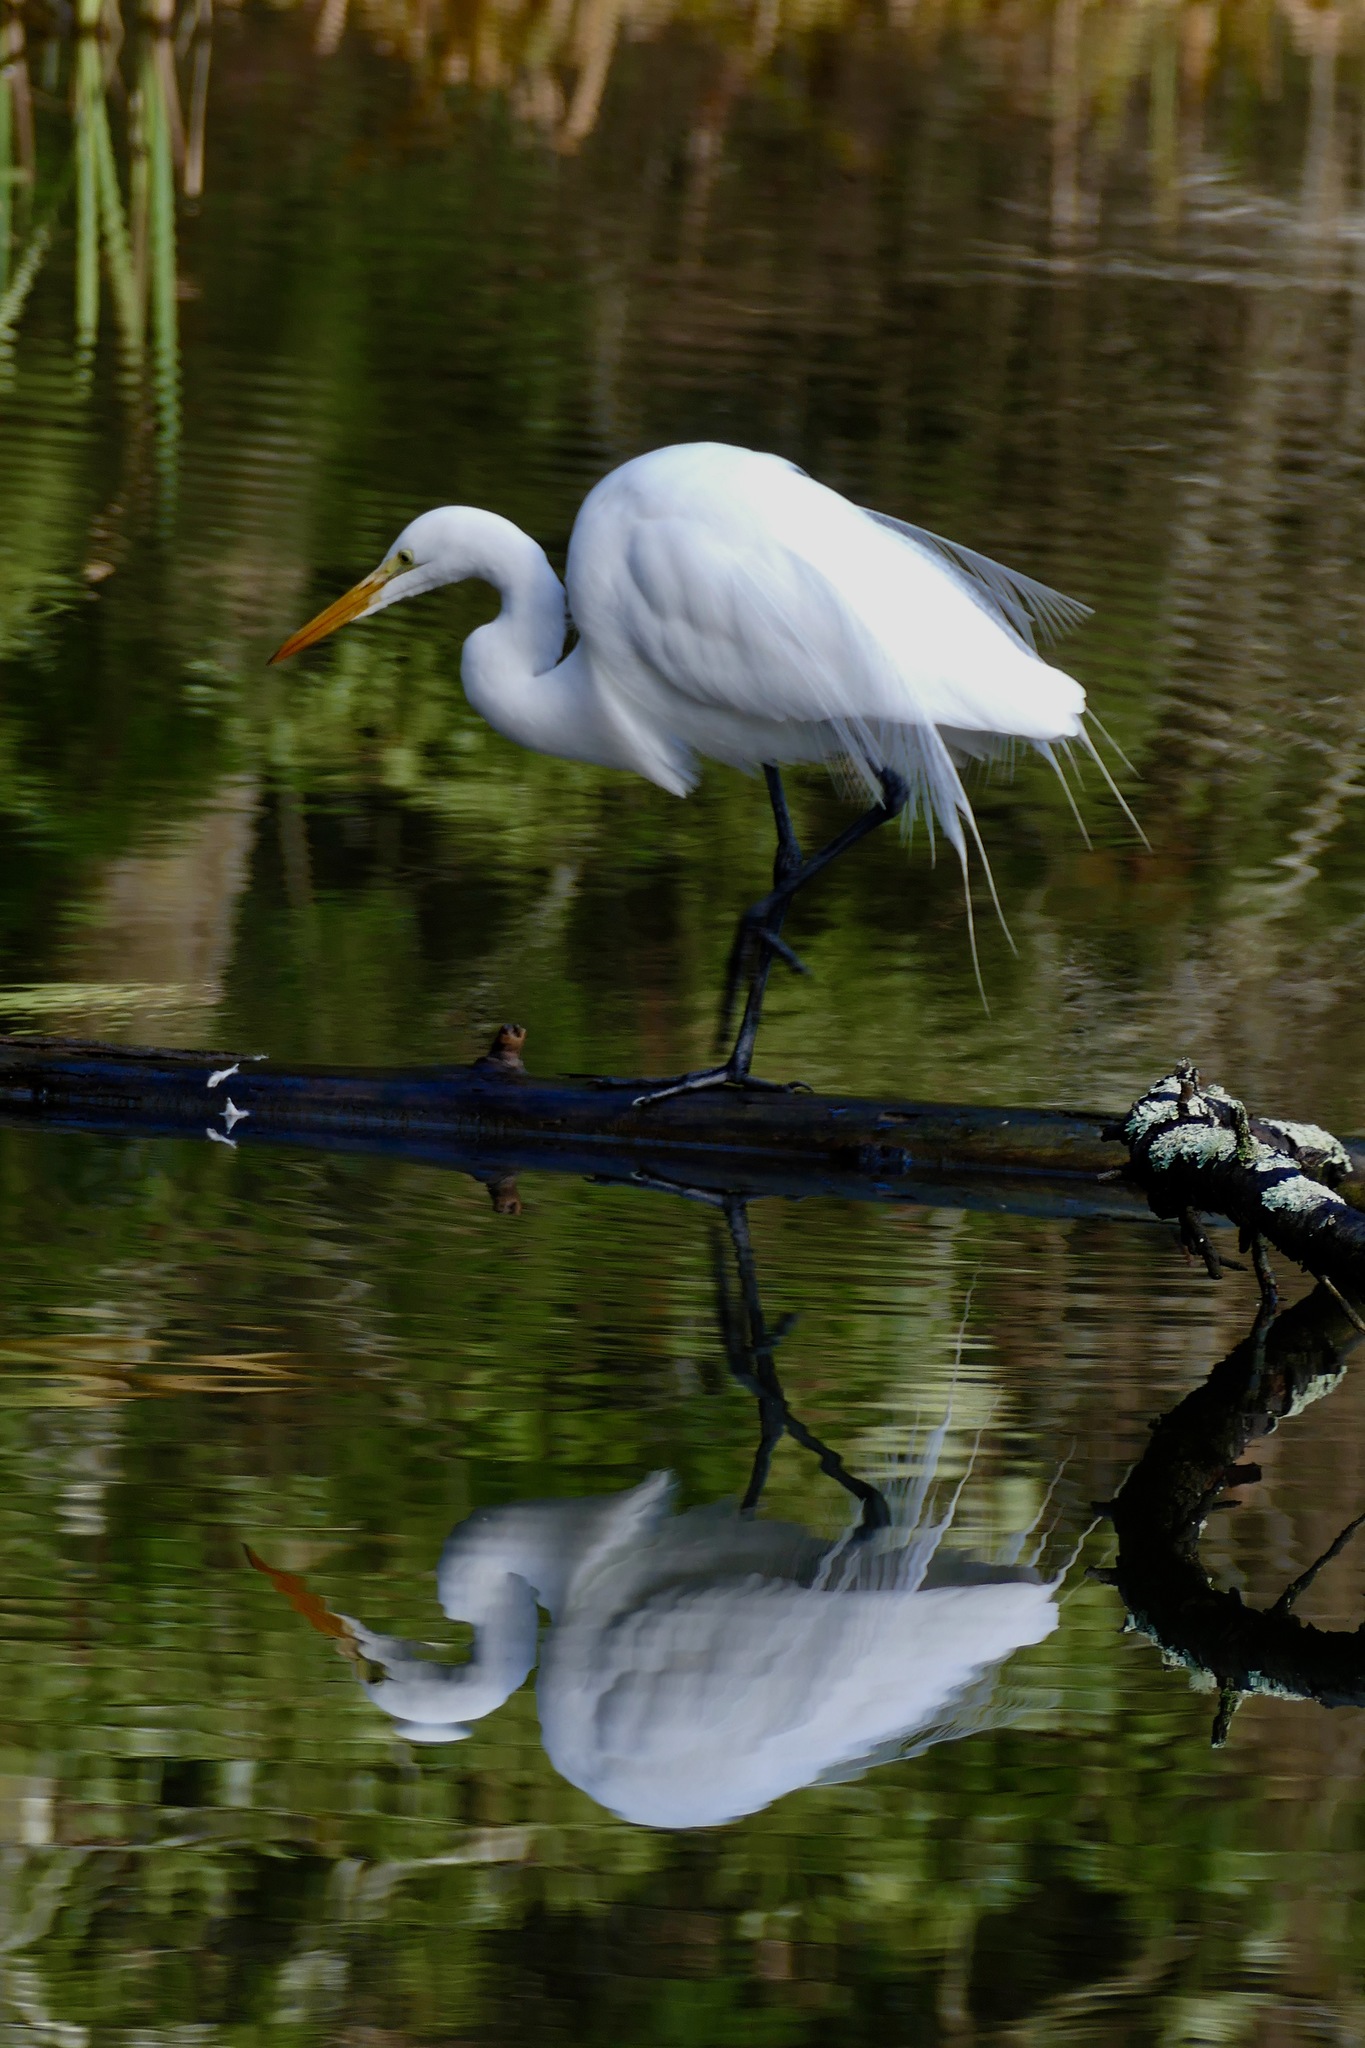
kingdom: Animalia
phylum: Chordata
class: Aves
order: Pelecaniformes
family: Ardeidae
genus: Ardea
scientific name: Ardea alba
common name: Great egret
